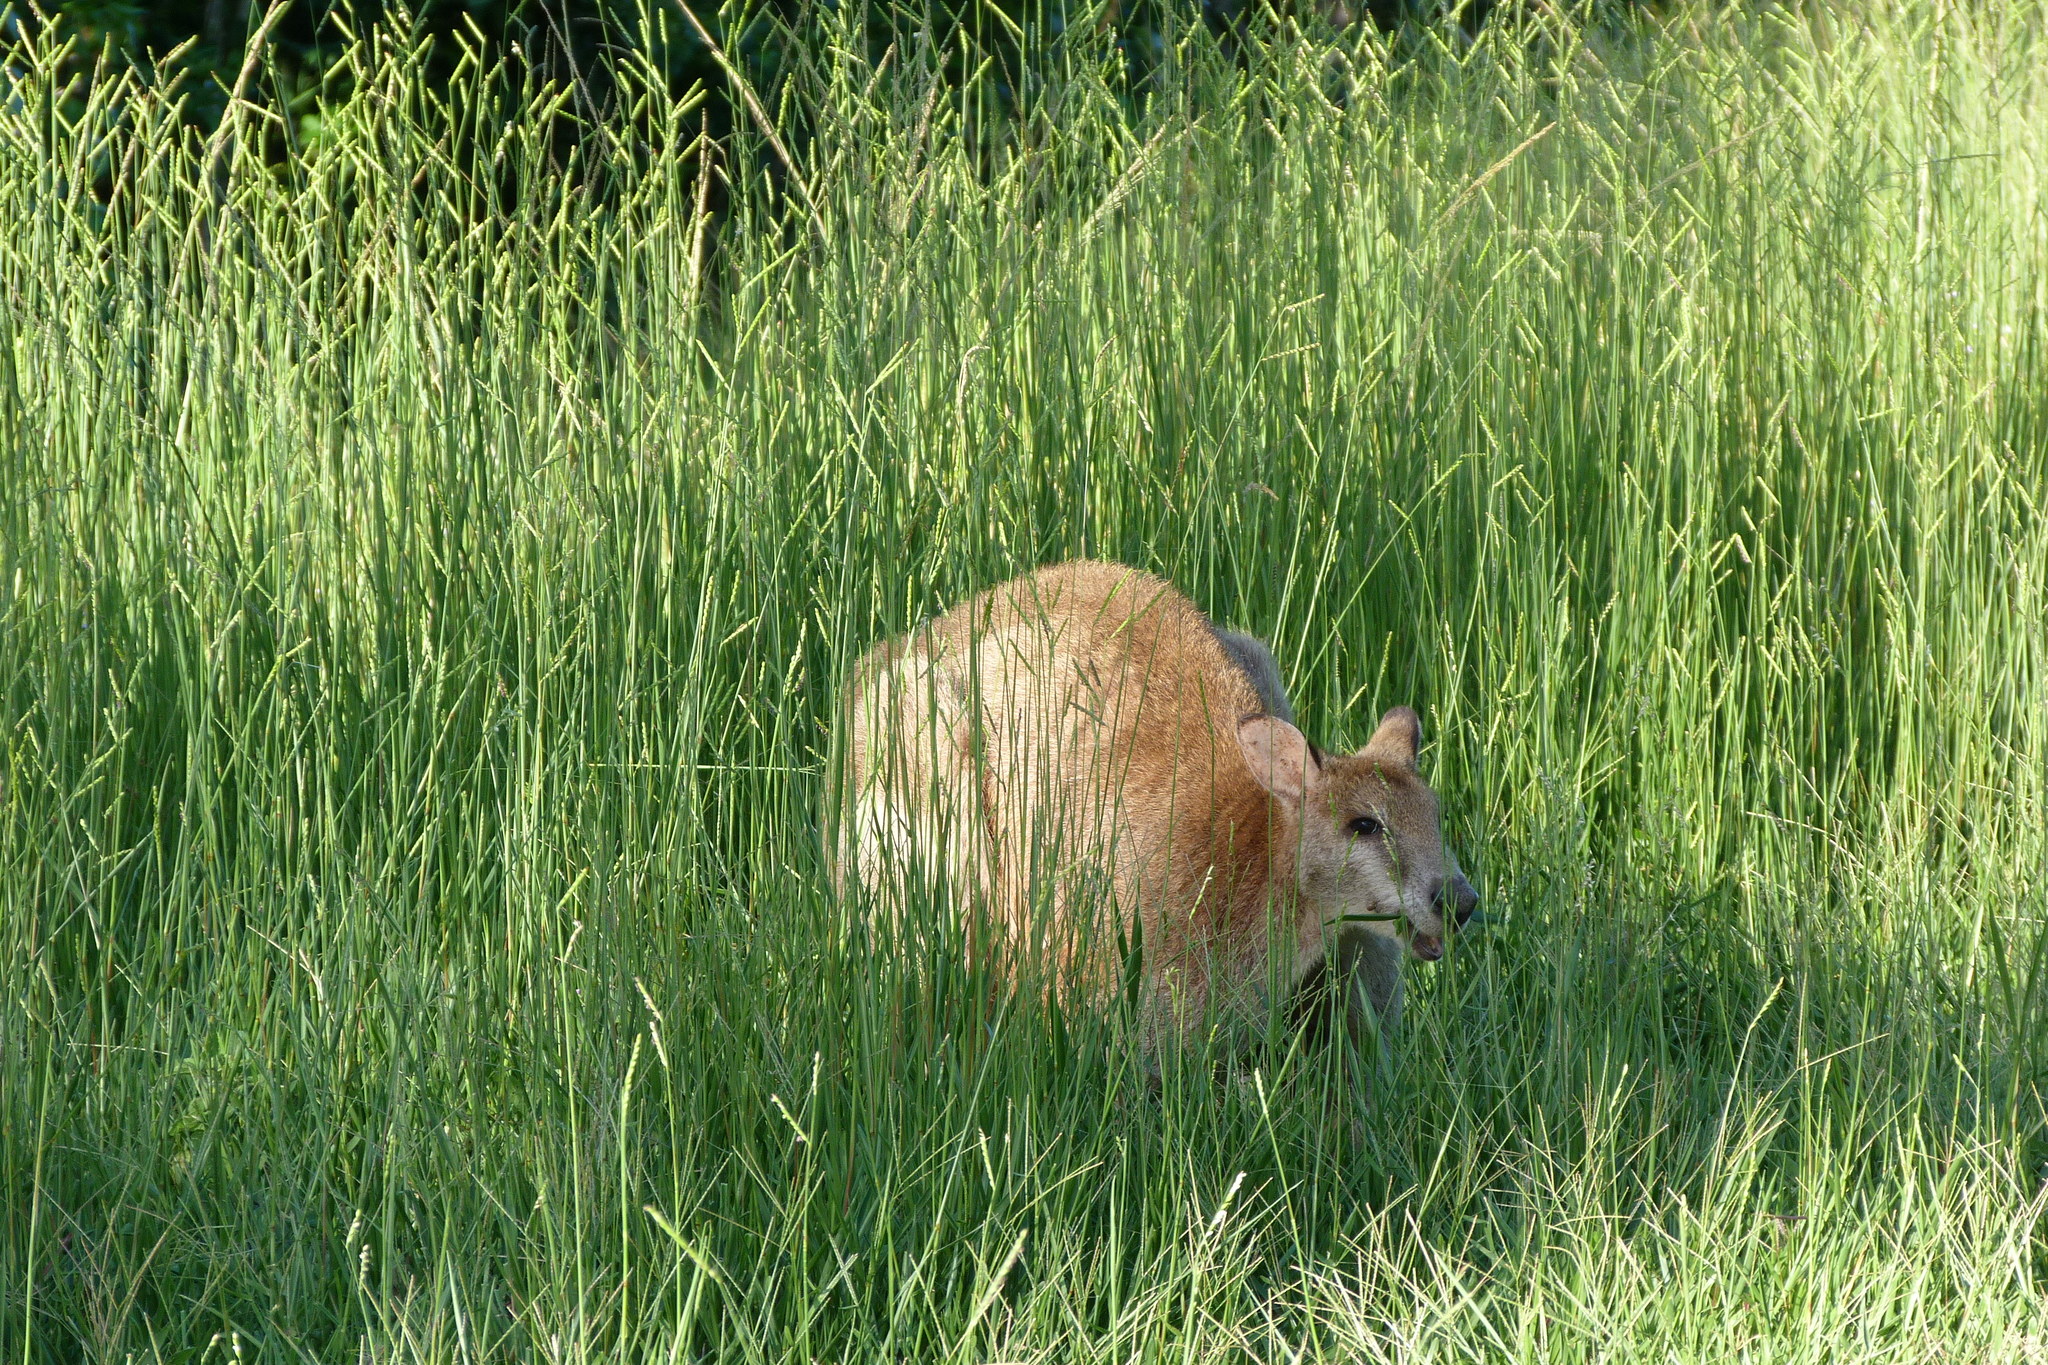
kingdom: Animalia
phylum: Chordata
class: Mammalia
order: Diprotodontia
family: Macropodidae
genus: Macropus
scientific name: Macropus agilis
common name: Agile wallaby
